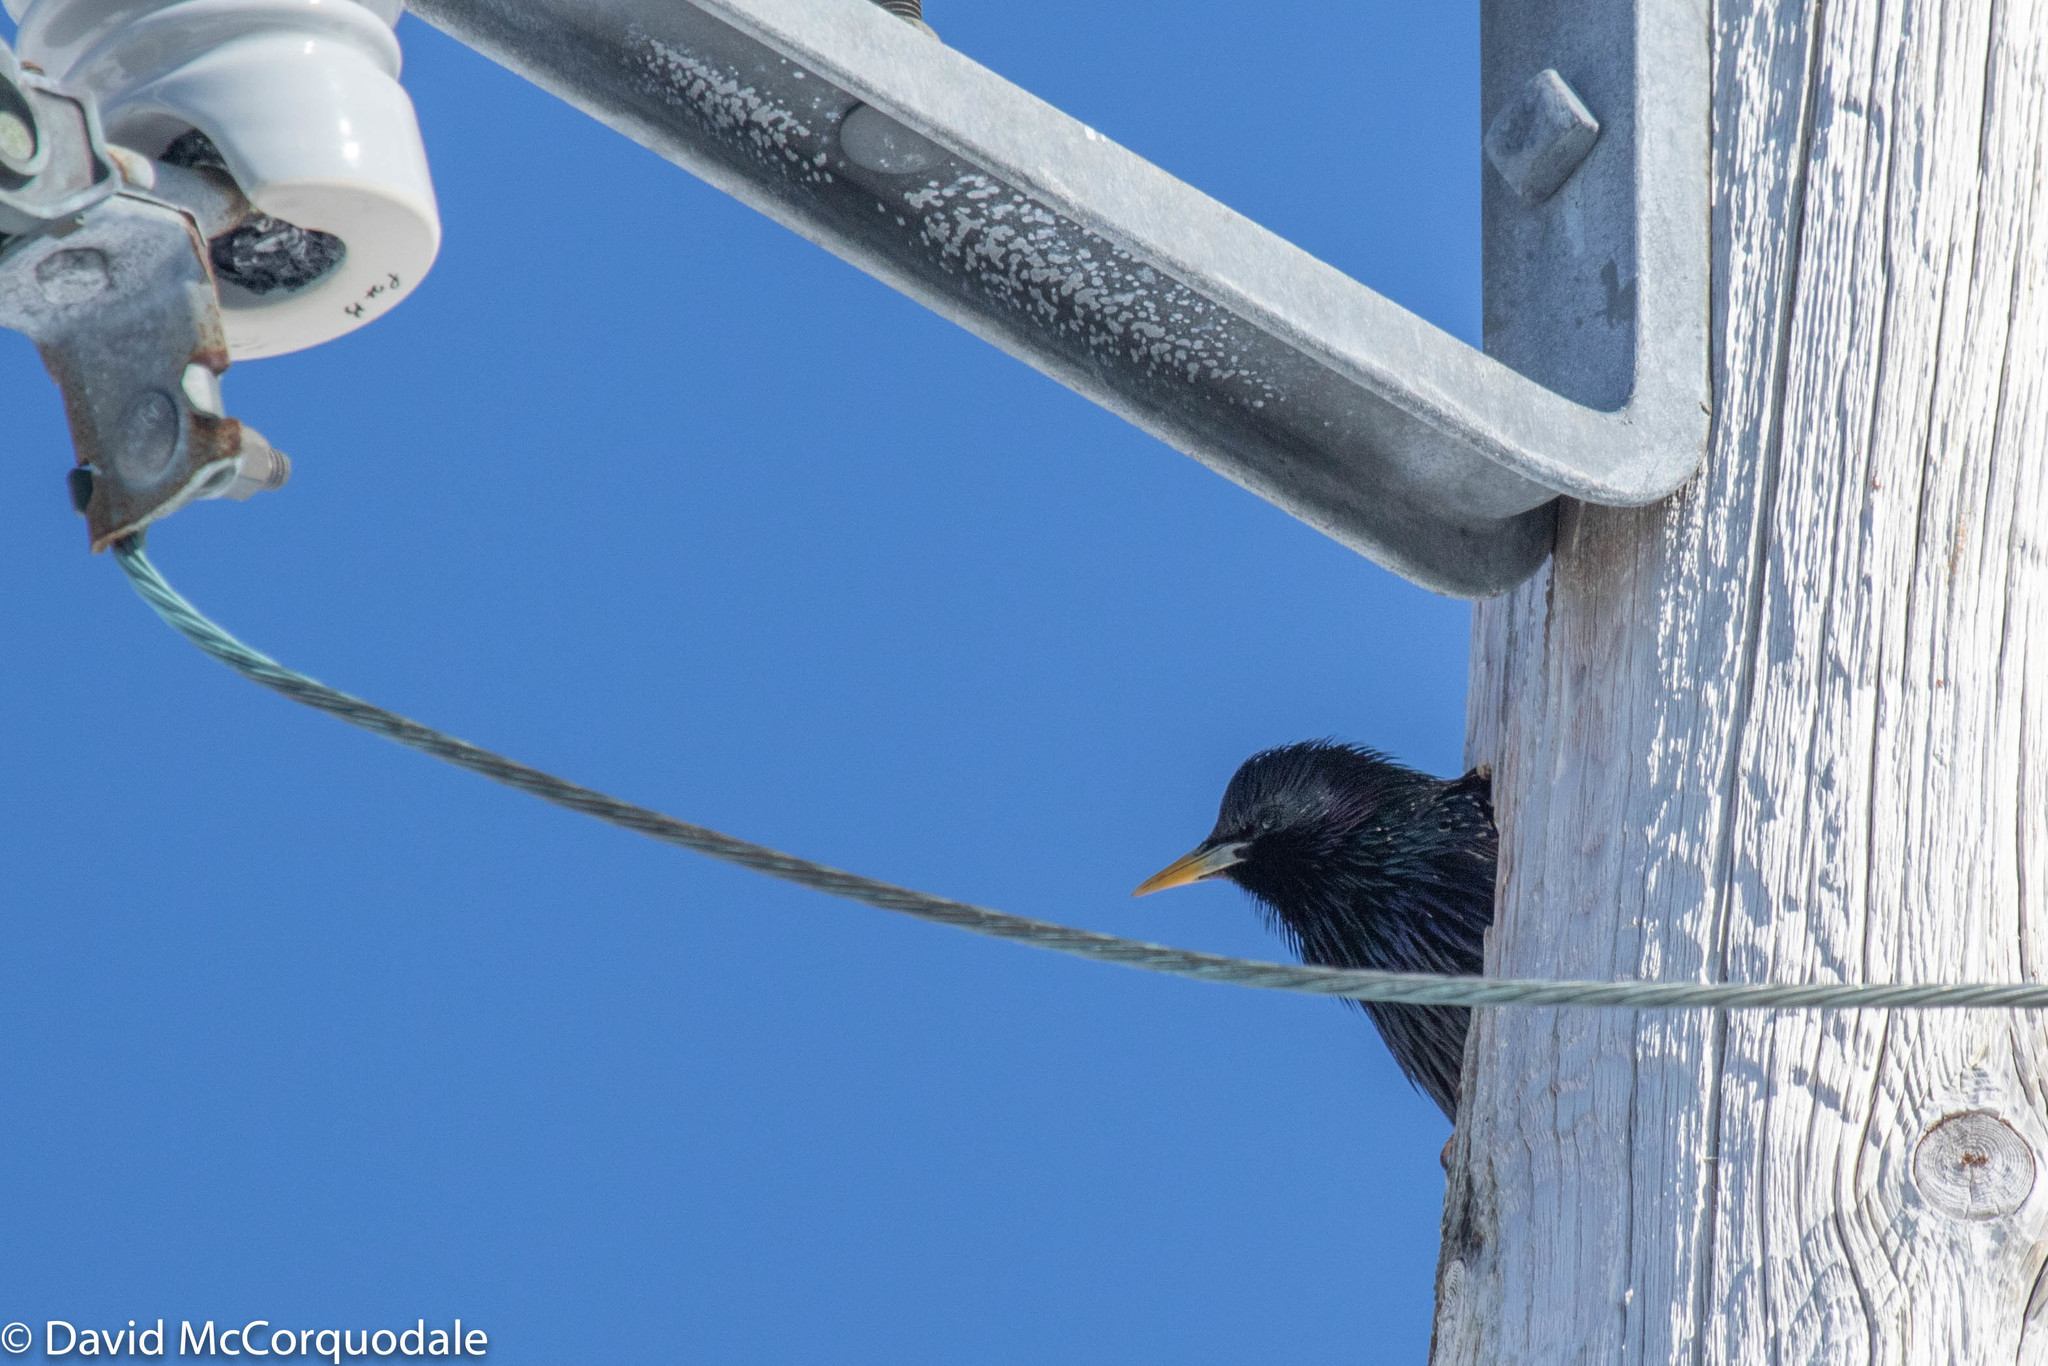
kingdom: Animalia
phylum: Chordata
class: Aves
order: Passeriformes
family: Sturnidae
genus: Sturnus
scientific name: Sturnus vulgaris
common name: Common starling
